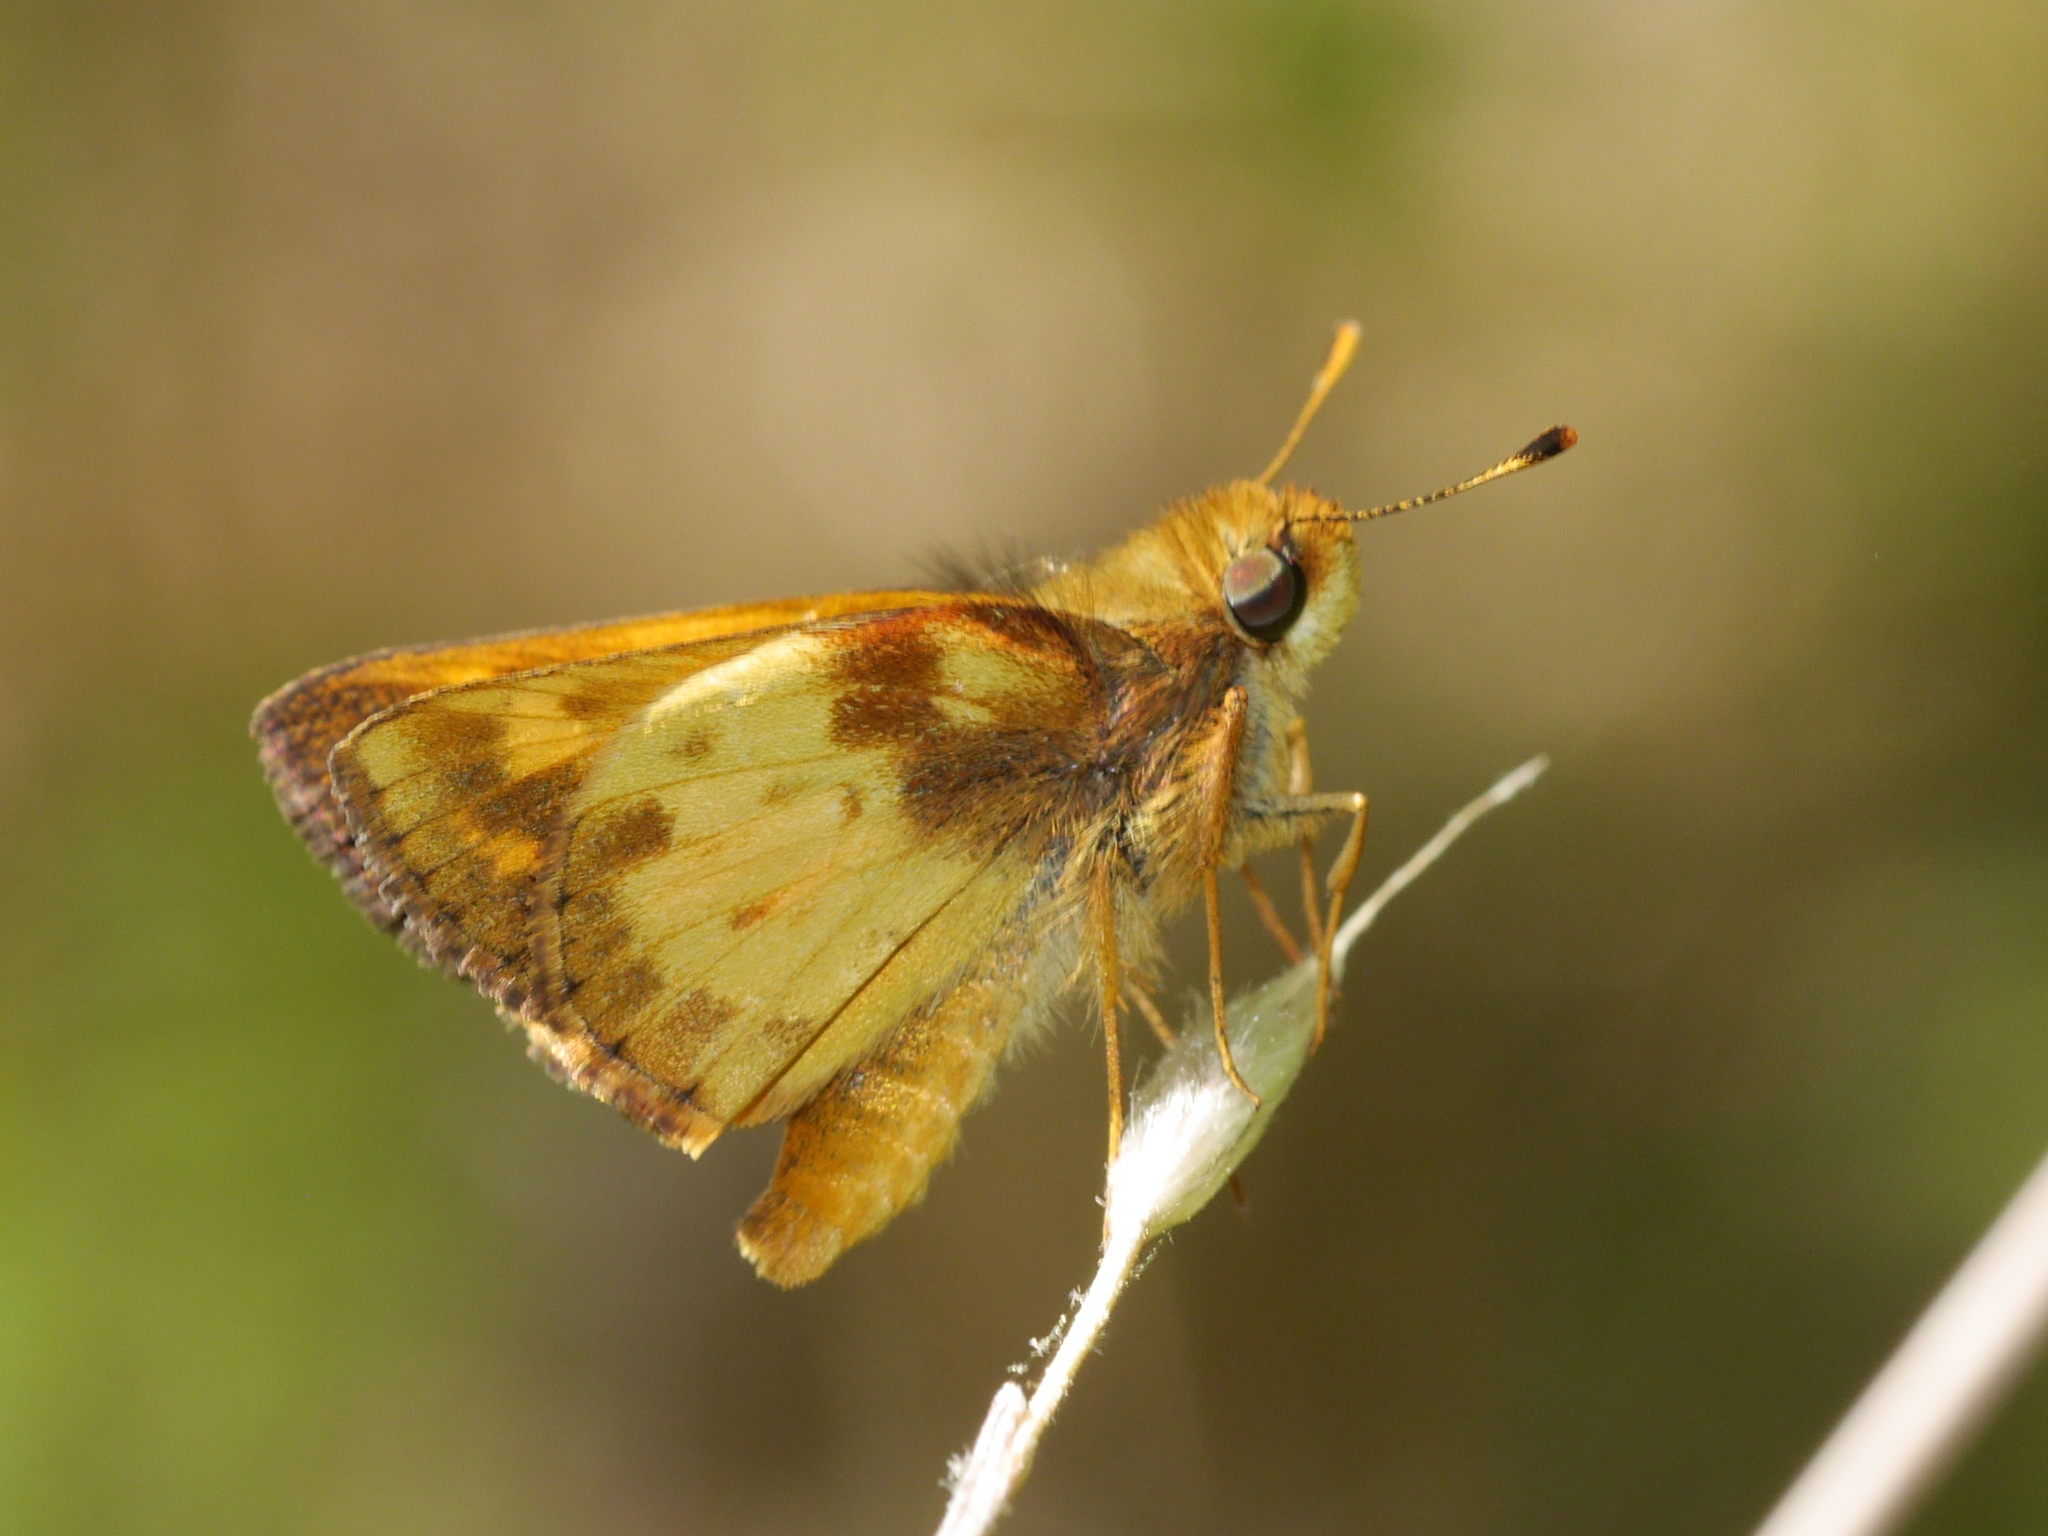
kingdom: Animalia
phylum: Arthropoda
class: Insecta
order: Lepidoptera
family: Hesperiidae
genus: Lon
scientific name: Lon zabulon
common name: Zabulon skipper
